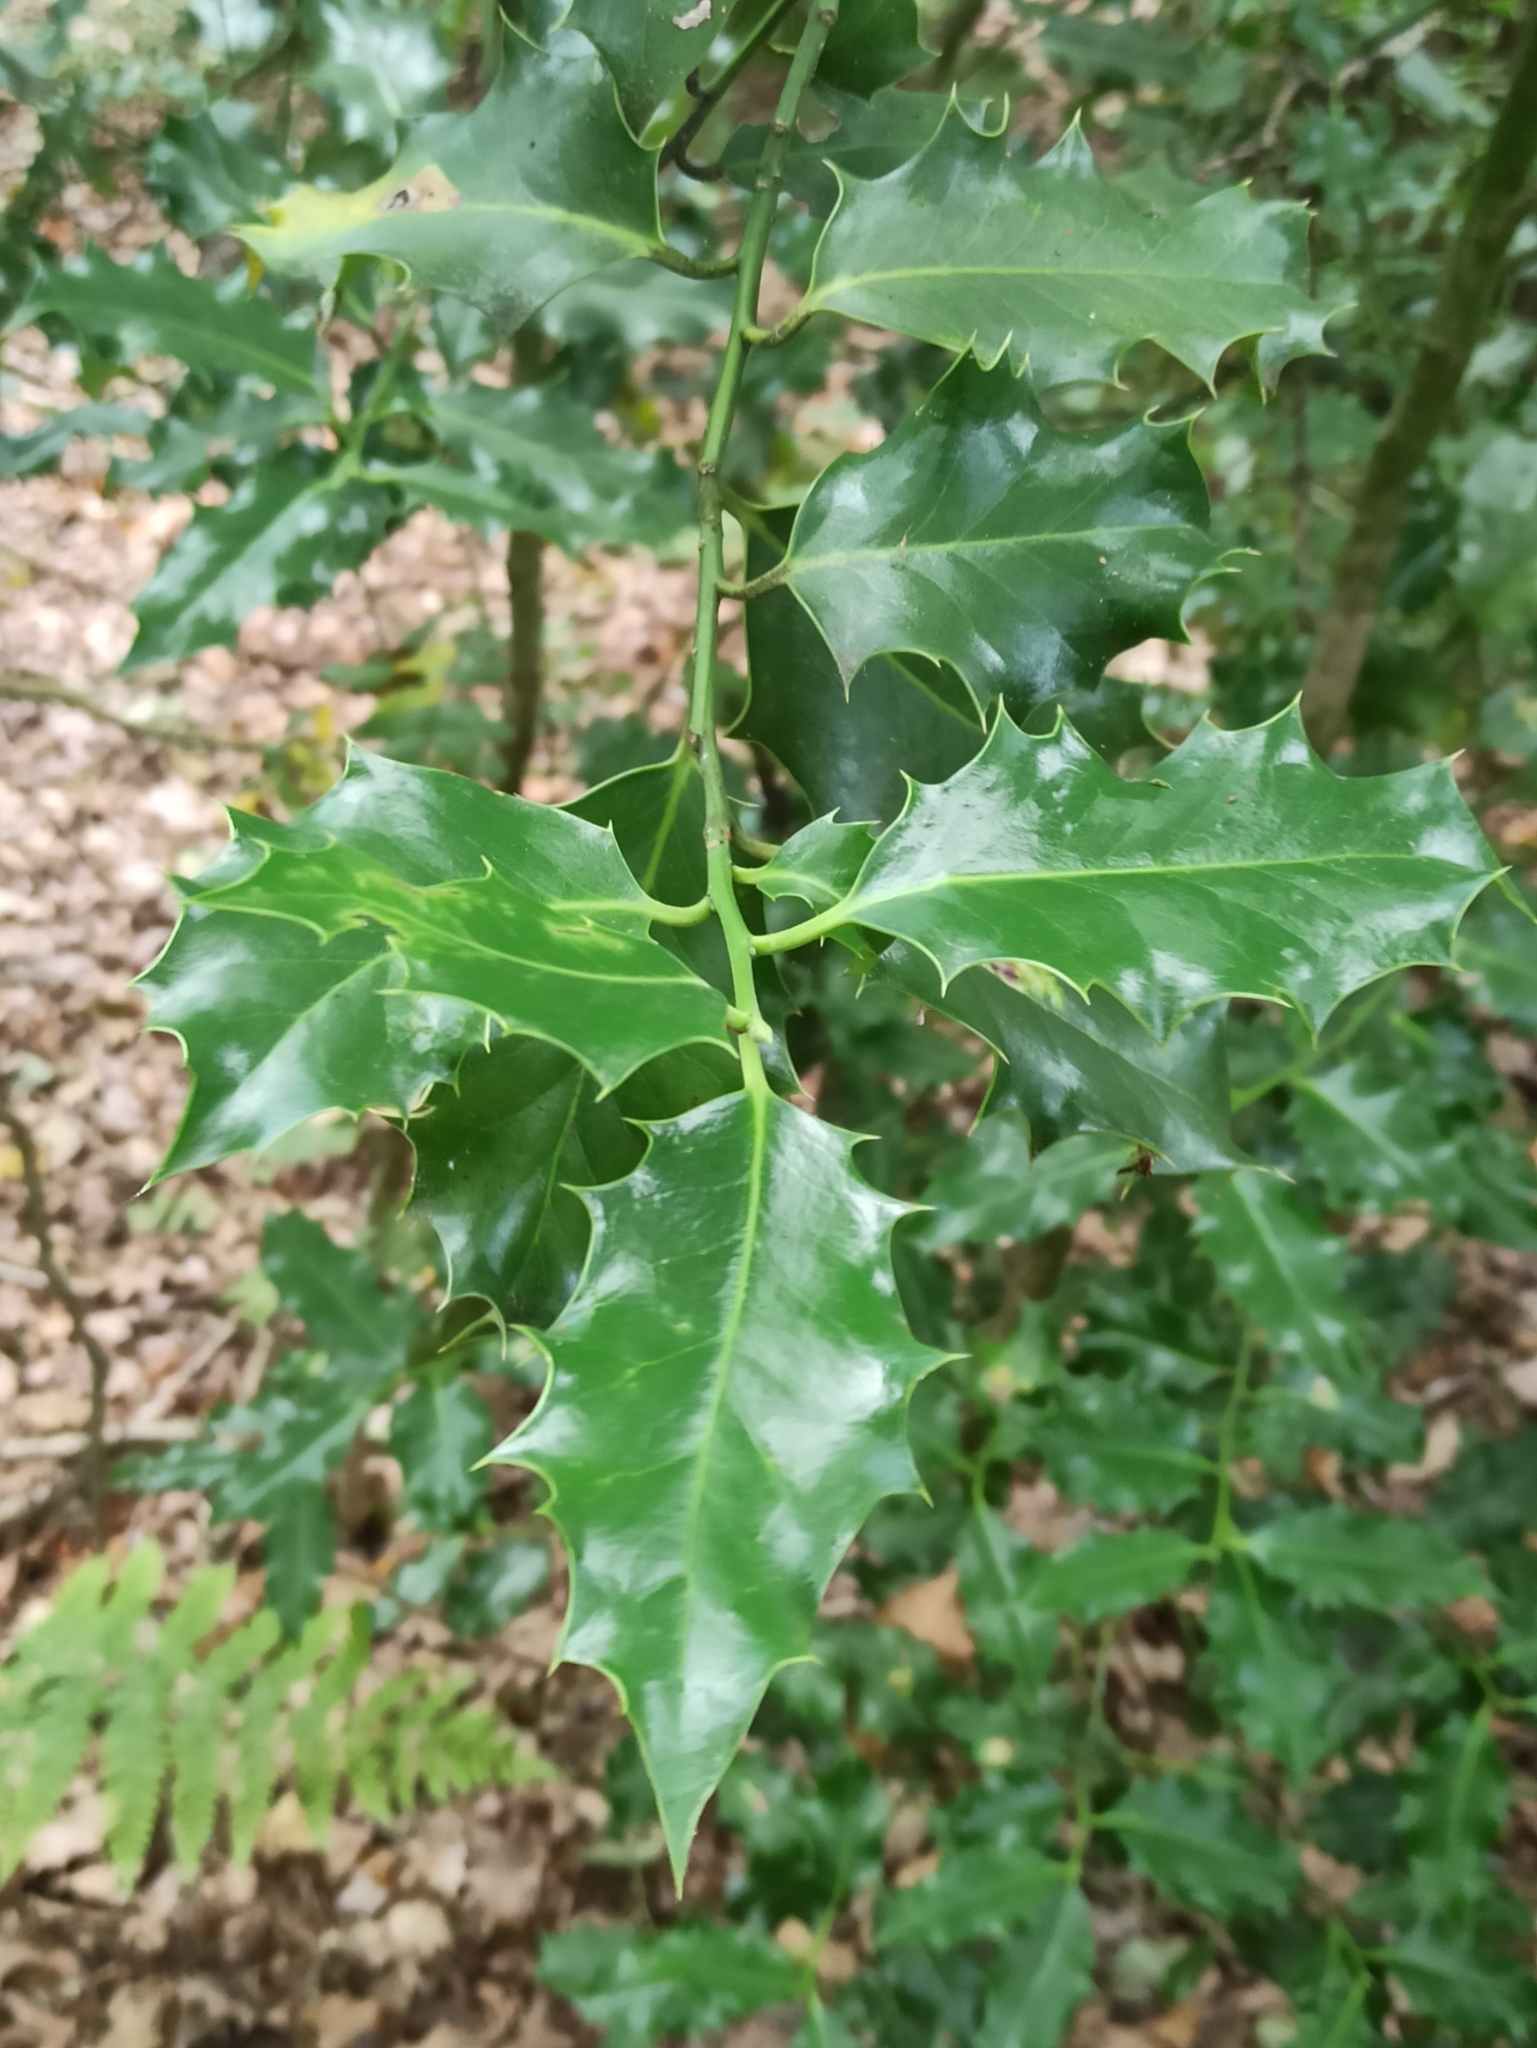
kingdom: Plantae
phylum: Tracheophyta
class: Magnoliopsida
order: Aquifoliales
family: Aquifoliaceae
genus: Ilex
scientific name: Ilex aquifolium
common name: English holly
